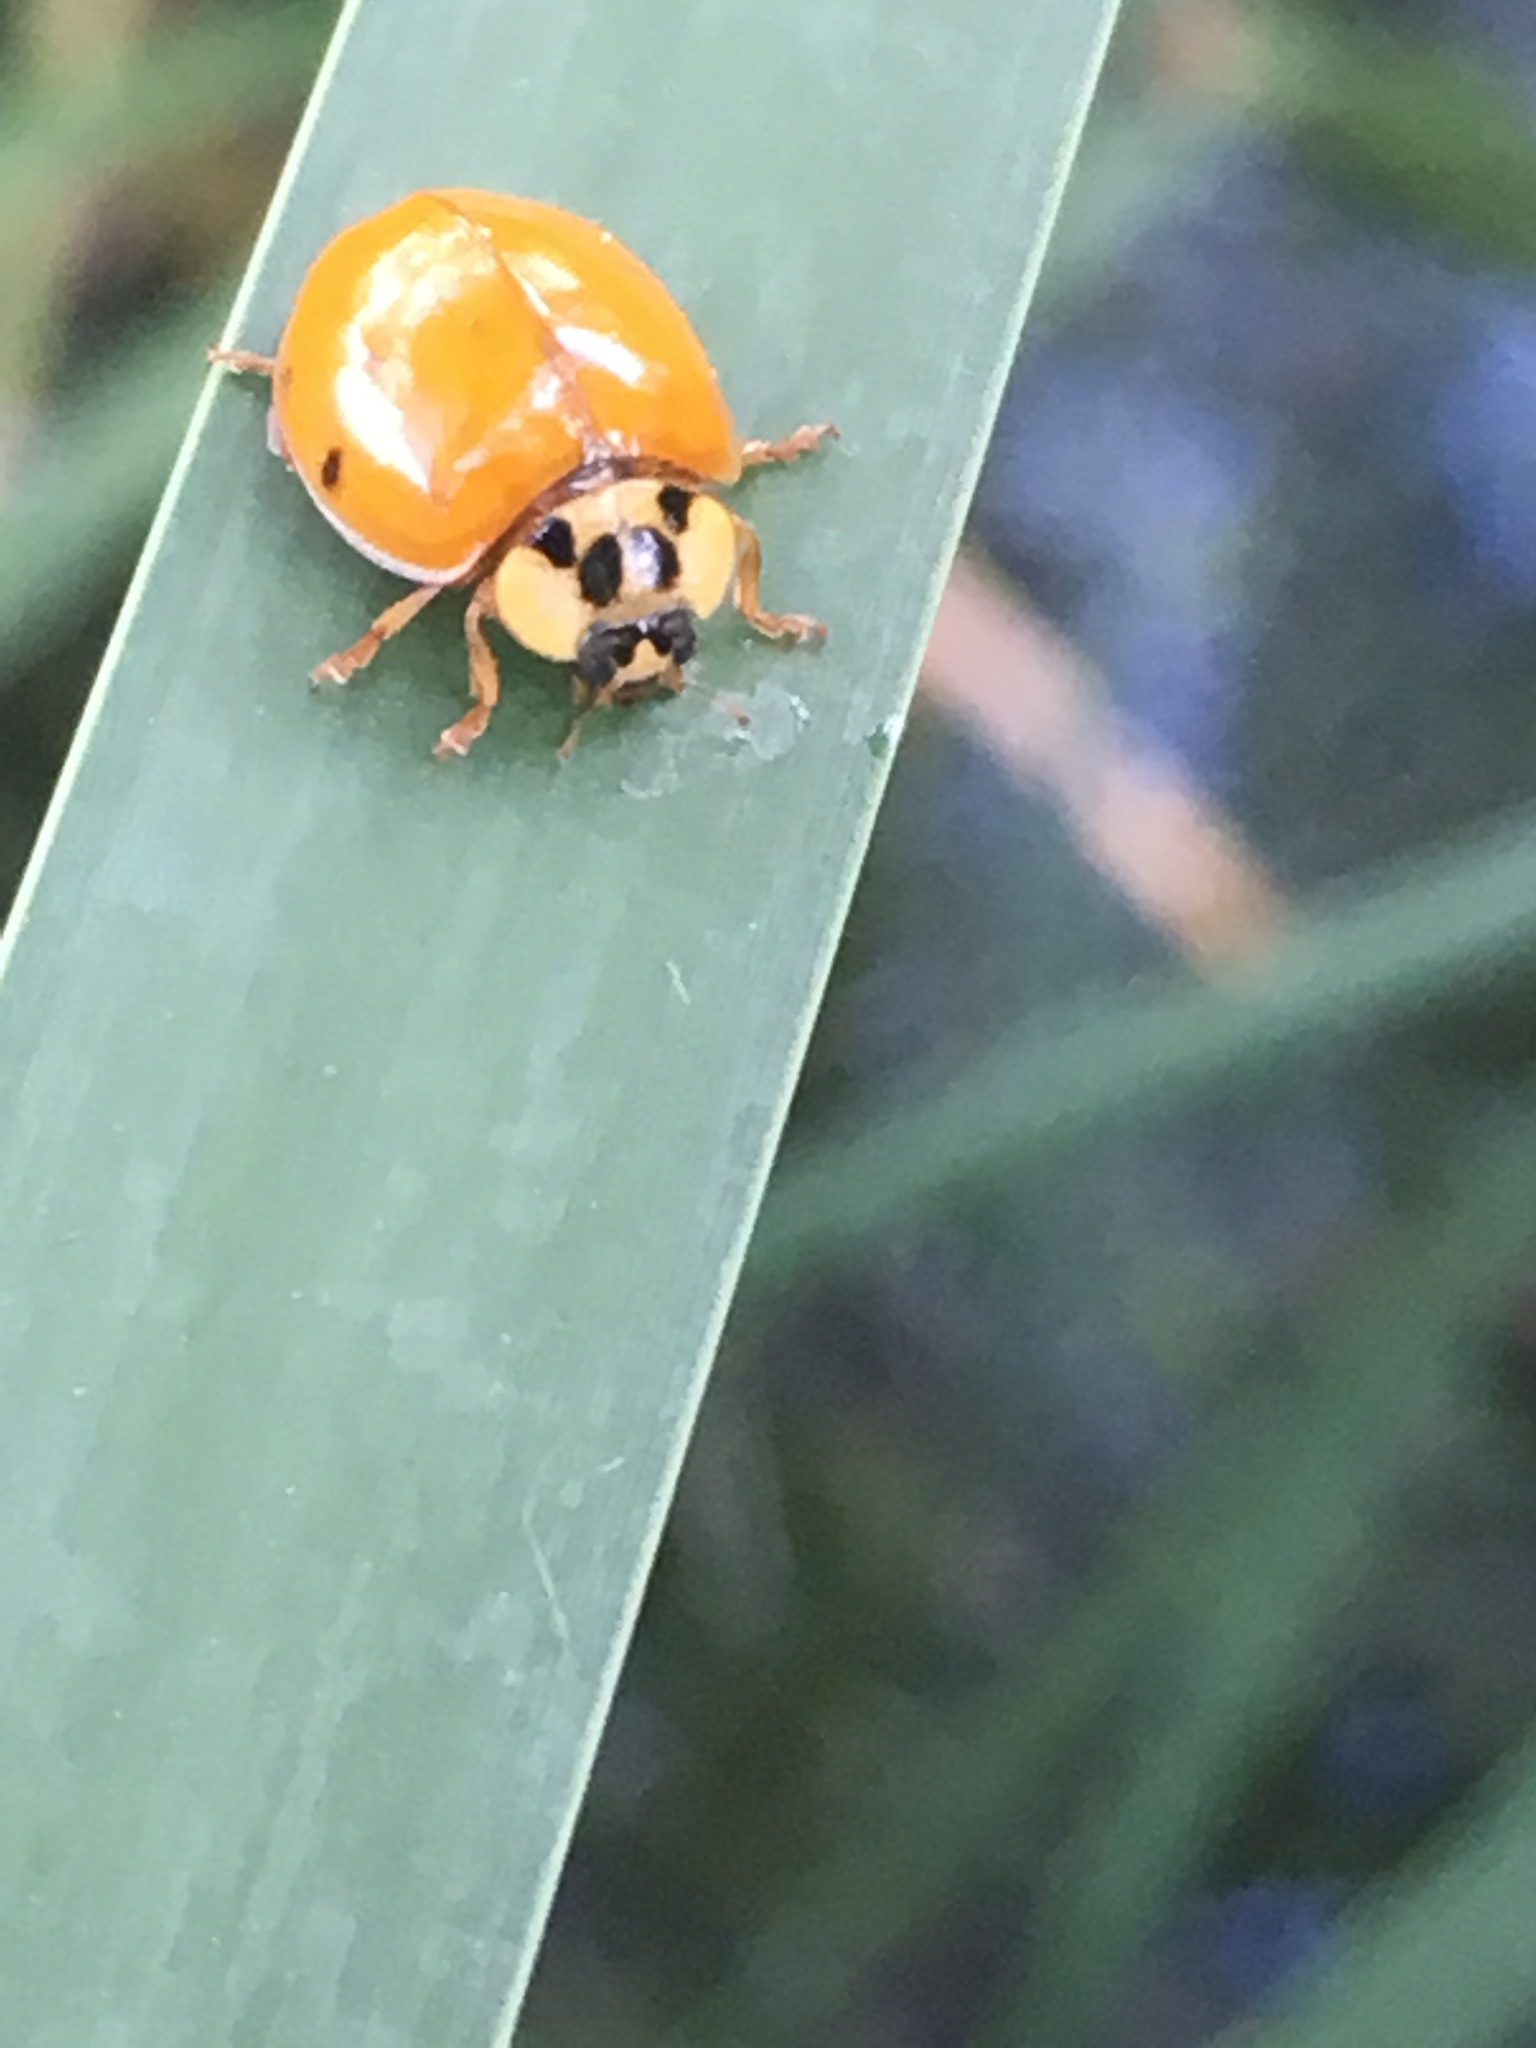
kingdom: Animalia
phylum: Arthropoda
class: Insecta
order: Coleoptera
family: Coccinellidae
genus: Harmonia
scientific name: Harmonia axyridis
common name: Harlequin ladybird
